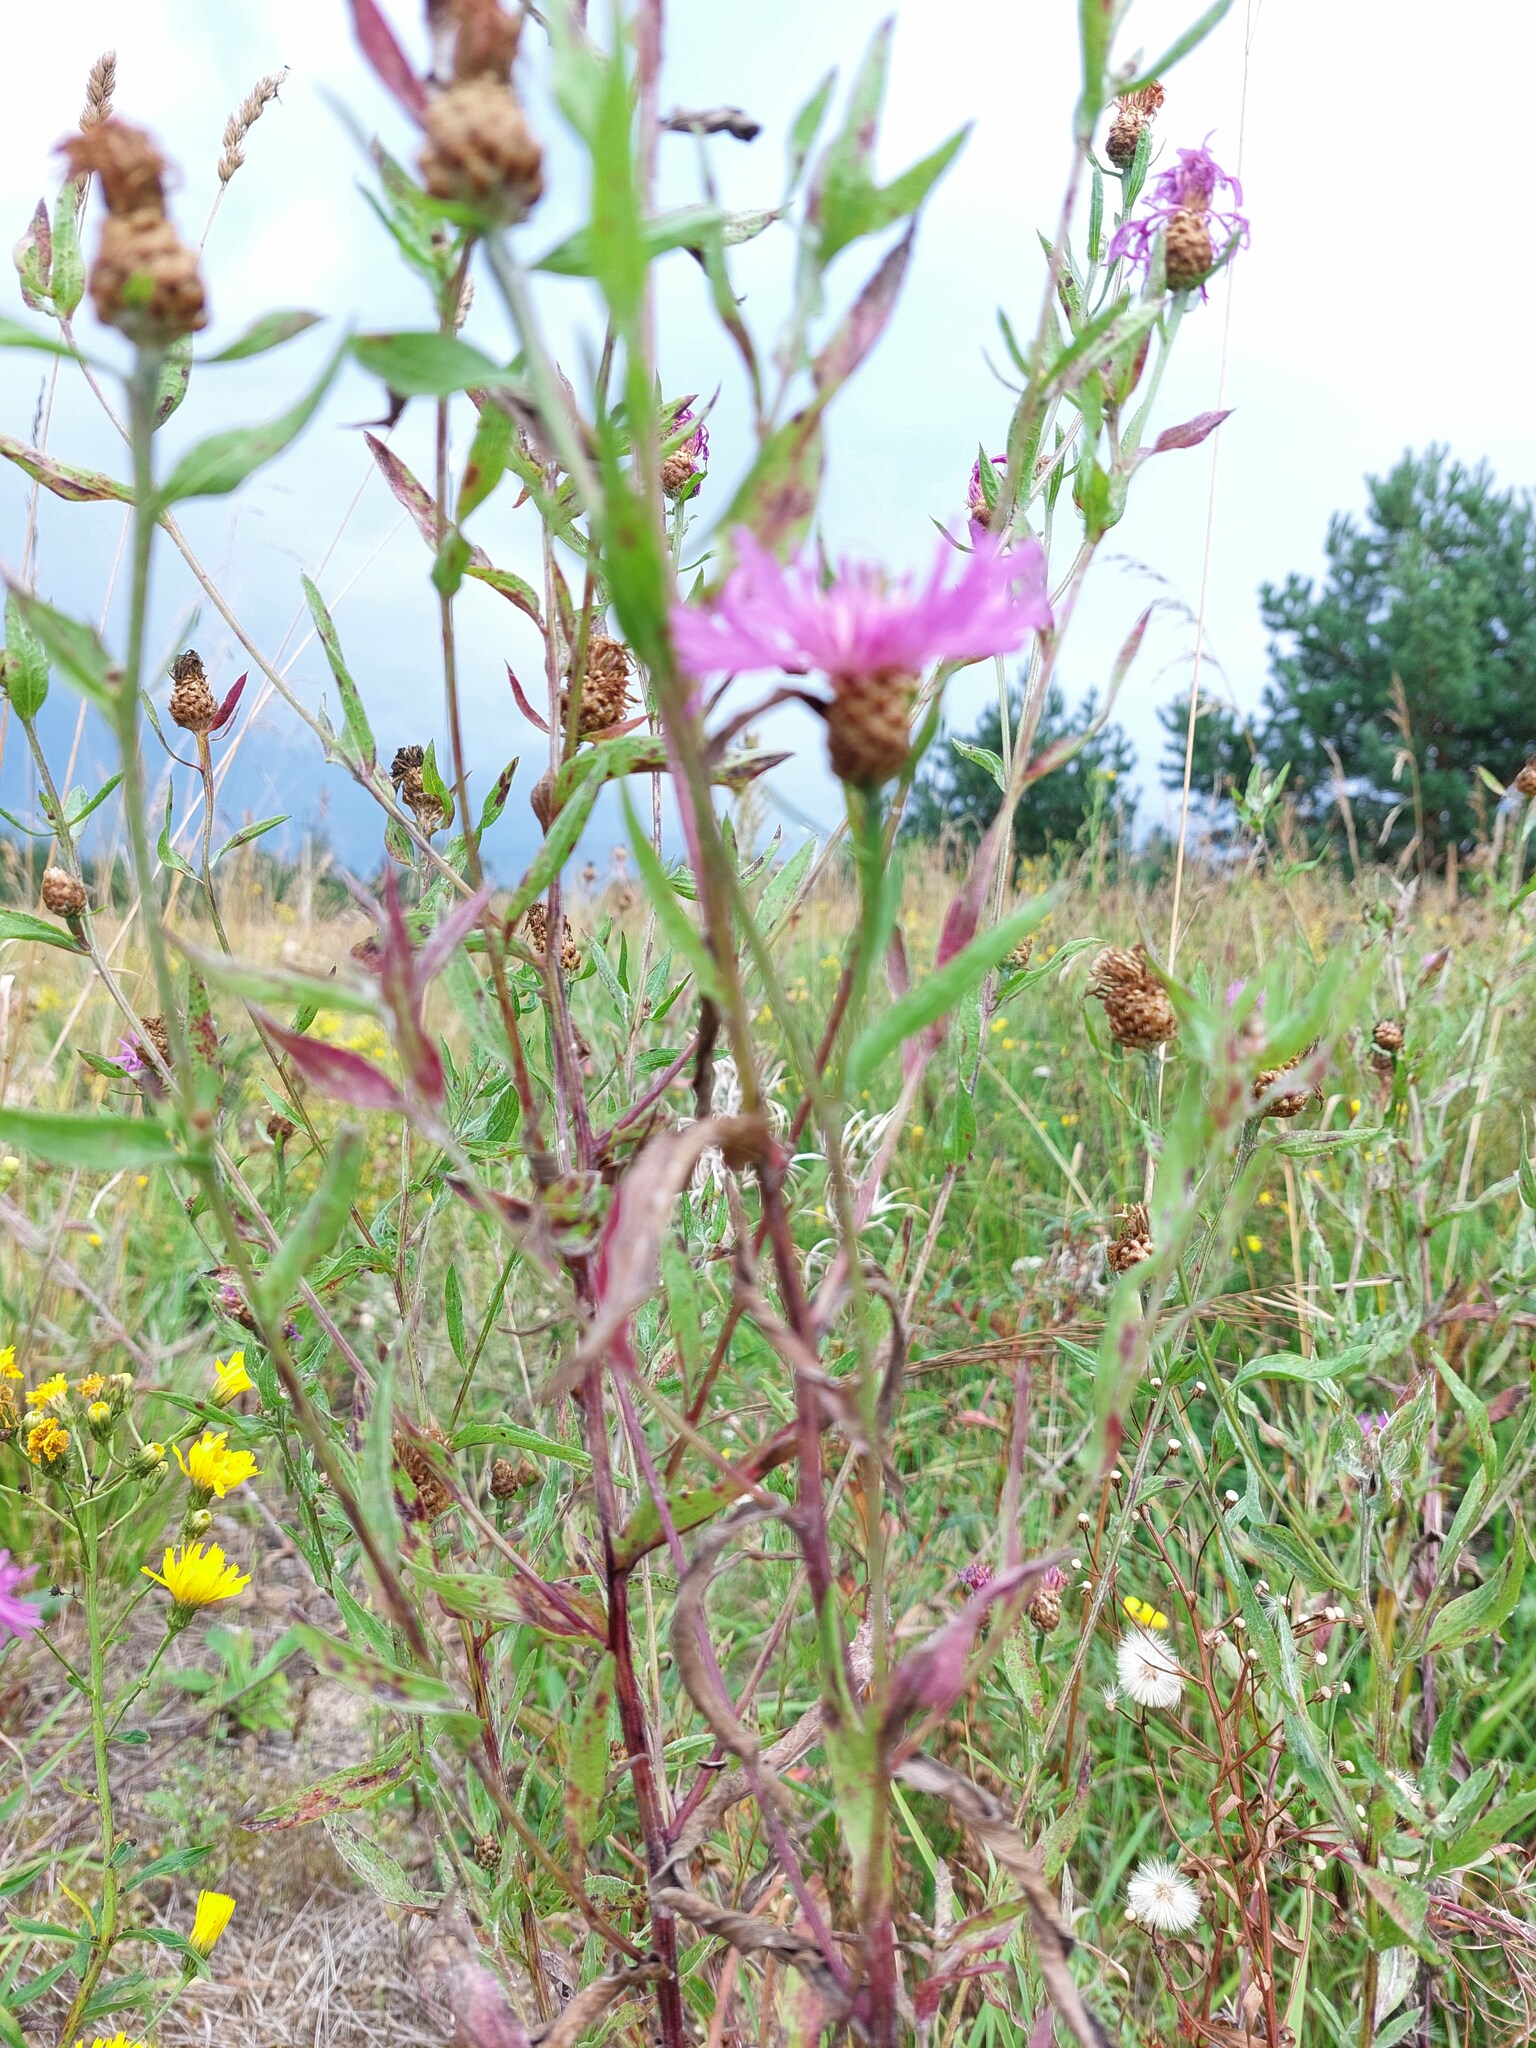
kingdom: Plantae
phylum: Tracheophyta
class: Magnoliopsida
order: Asterales
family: Asteraceae
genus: Centaurea
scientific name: Centaurea jacea
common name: Brown knapweed
